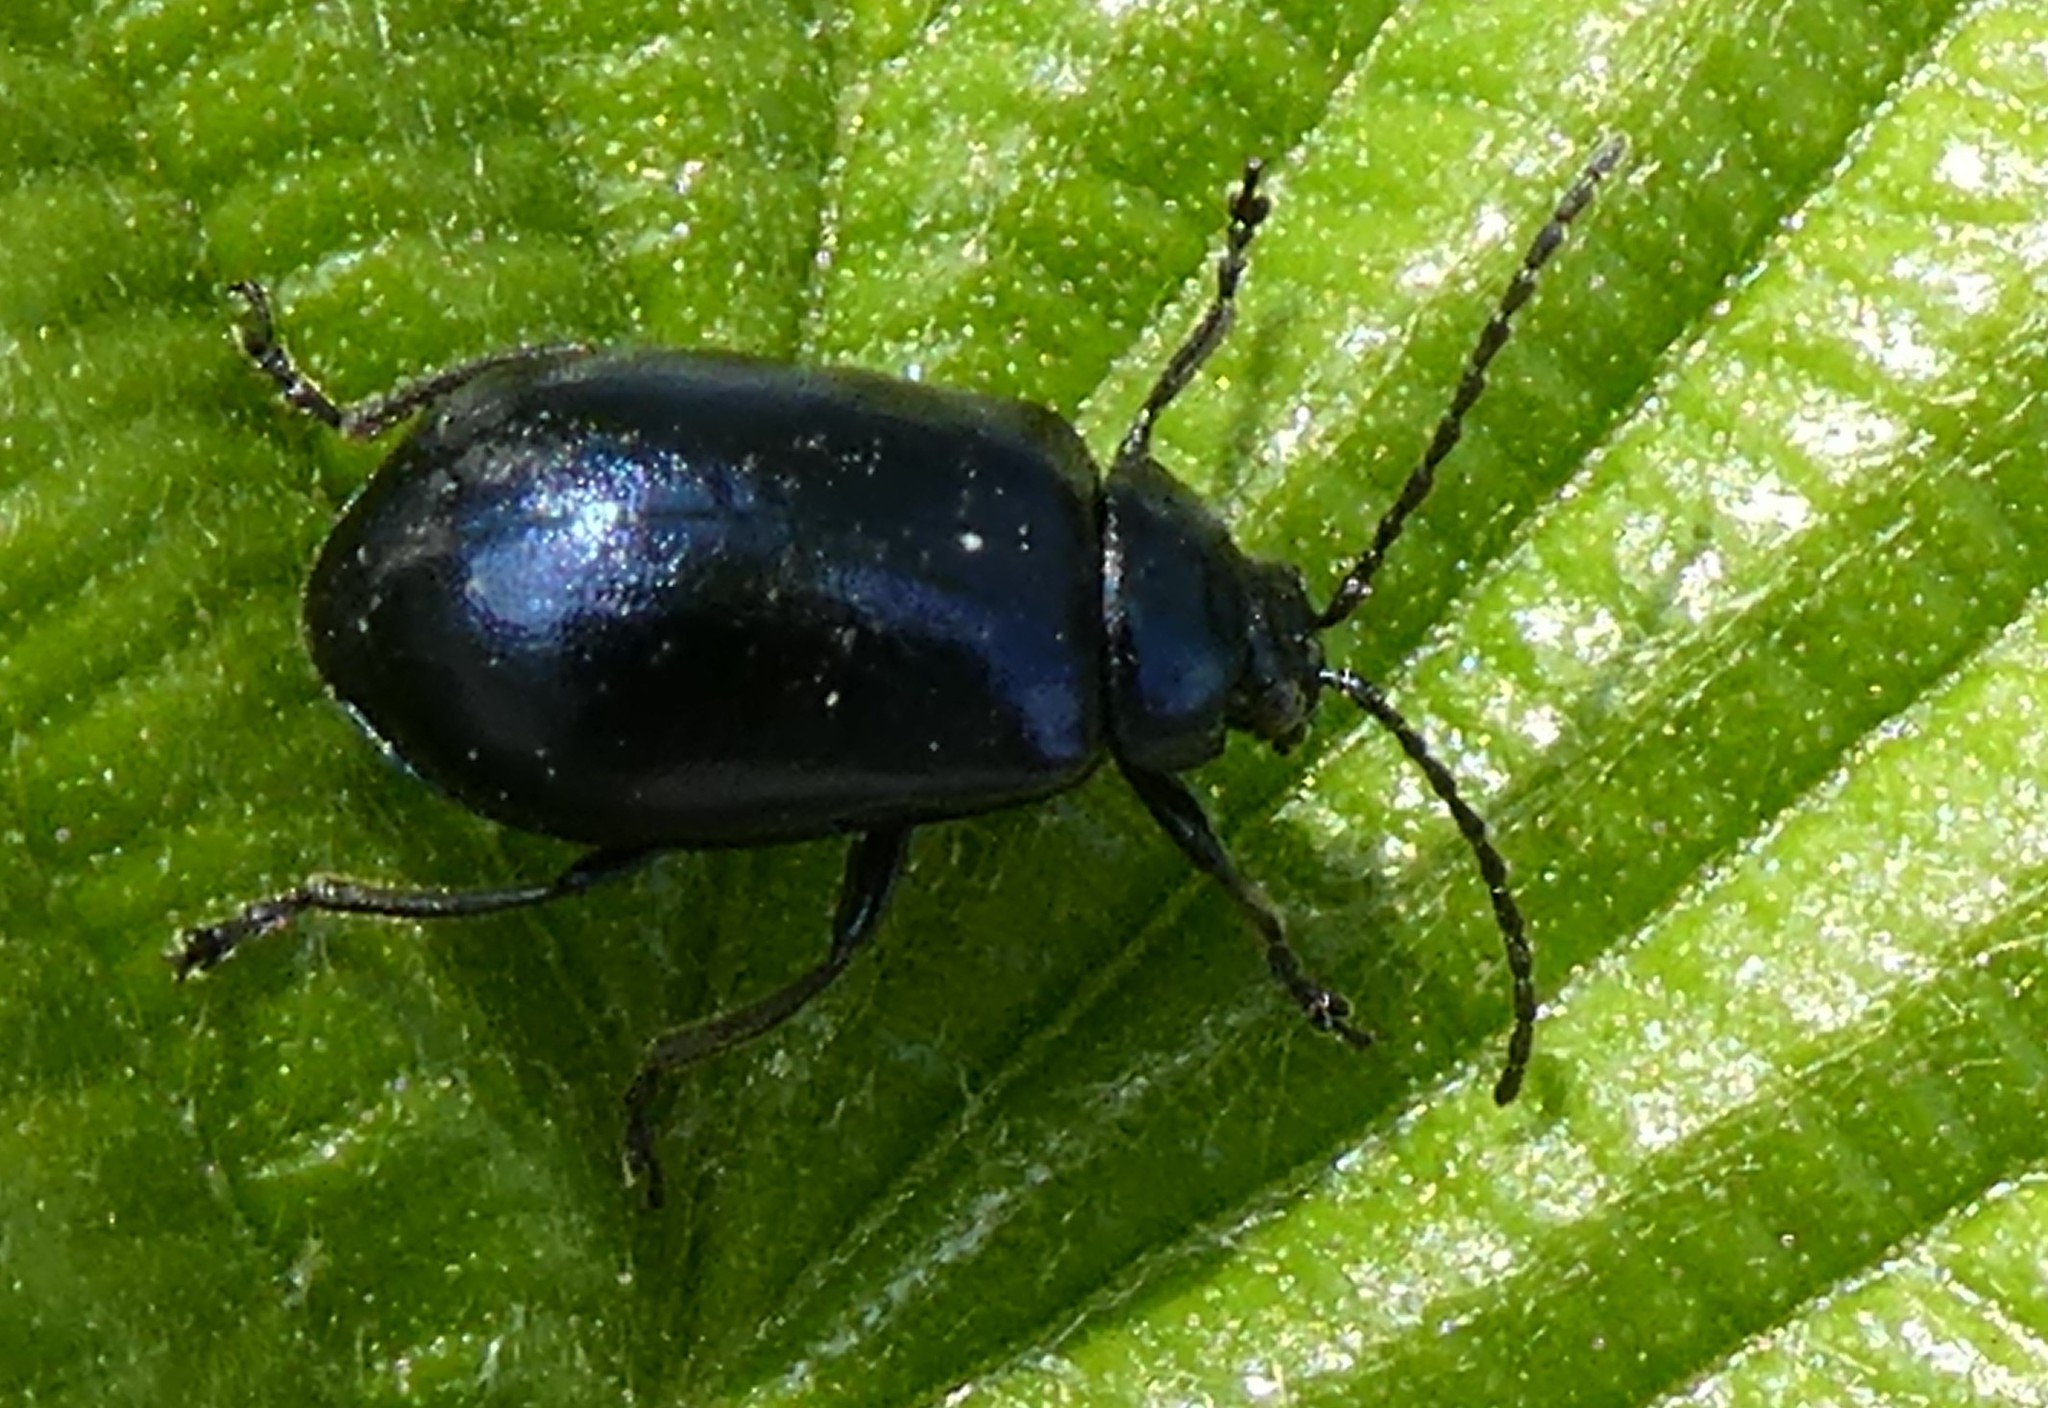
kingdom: Animalia
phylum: Arthropoda
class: Insecta
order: Coleoptera
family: Chrysomelidae
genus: Agelastica
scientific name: Agelastica alni
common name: Alder leaf beetle
